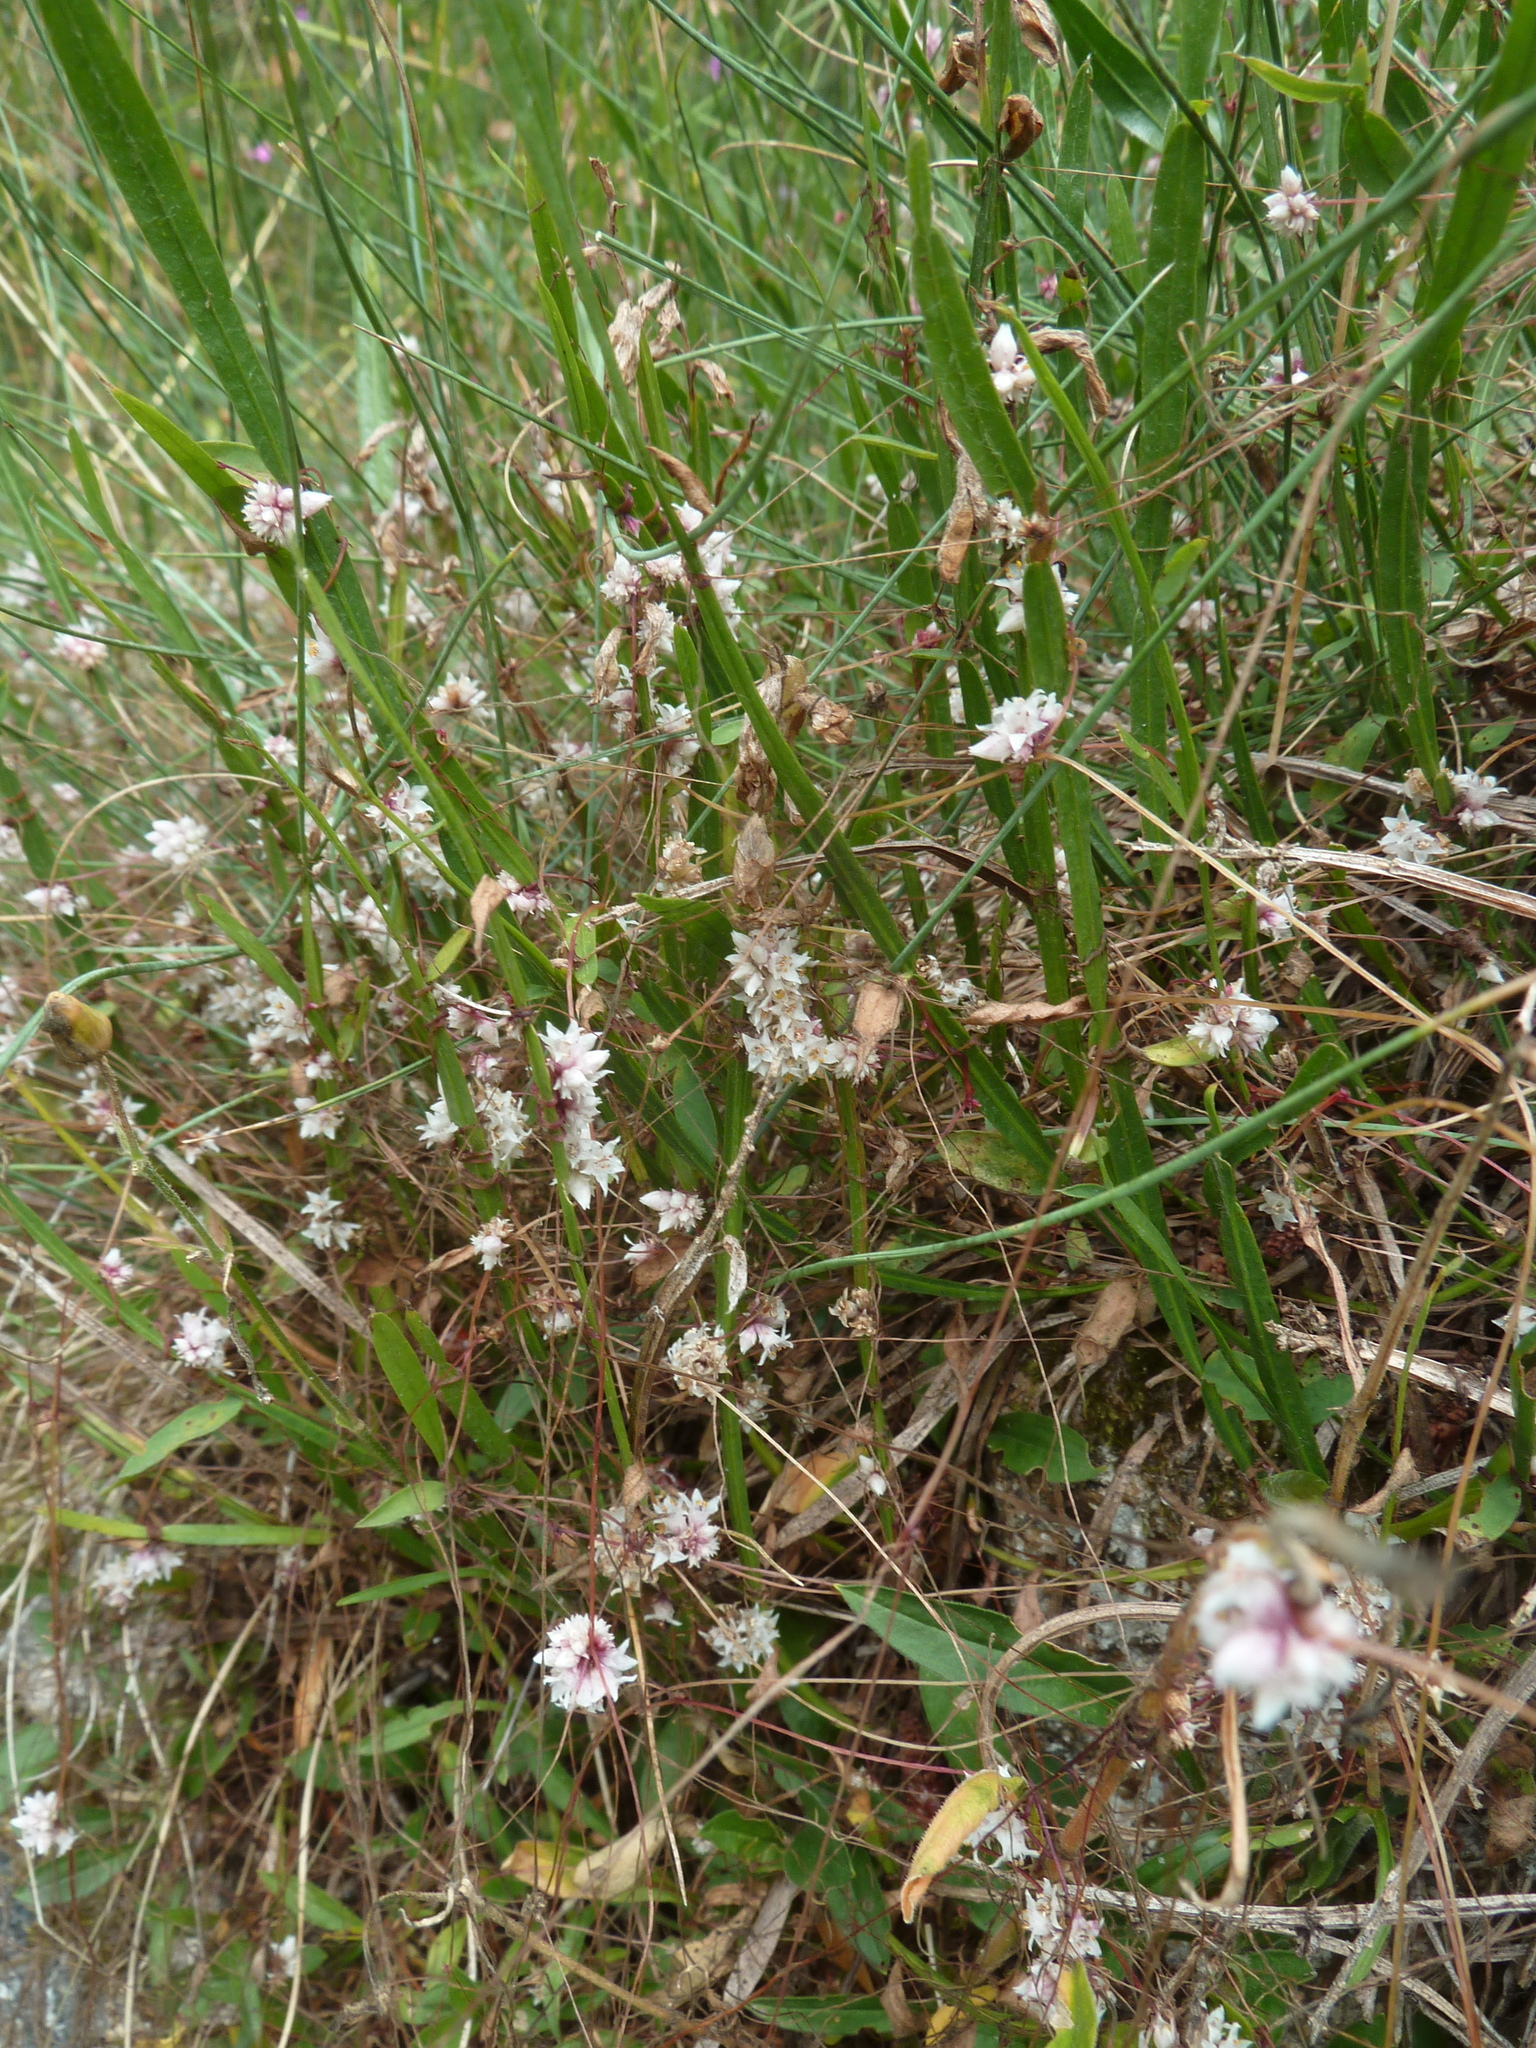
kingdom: Plantae
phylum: Tracheophyta
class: Magnoliopsida
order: Solanales
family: Convolvulaceae
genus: Cuscuta
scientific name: Cuscuta epithymum
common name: Clover dodder
